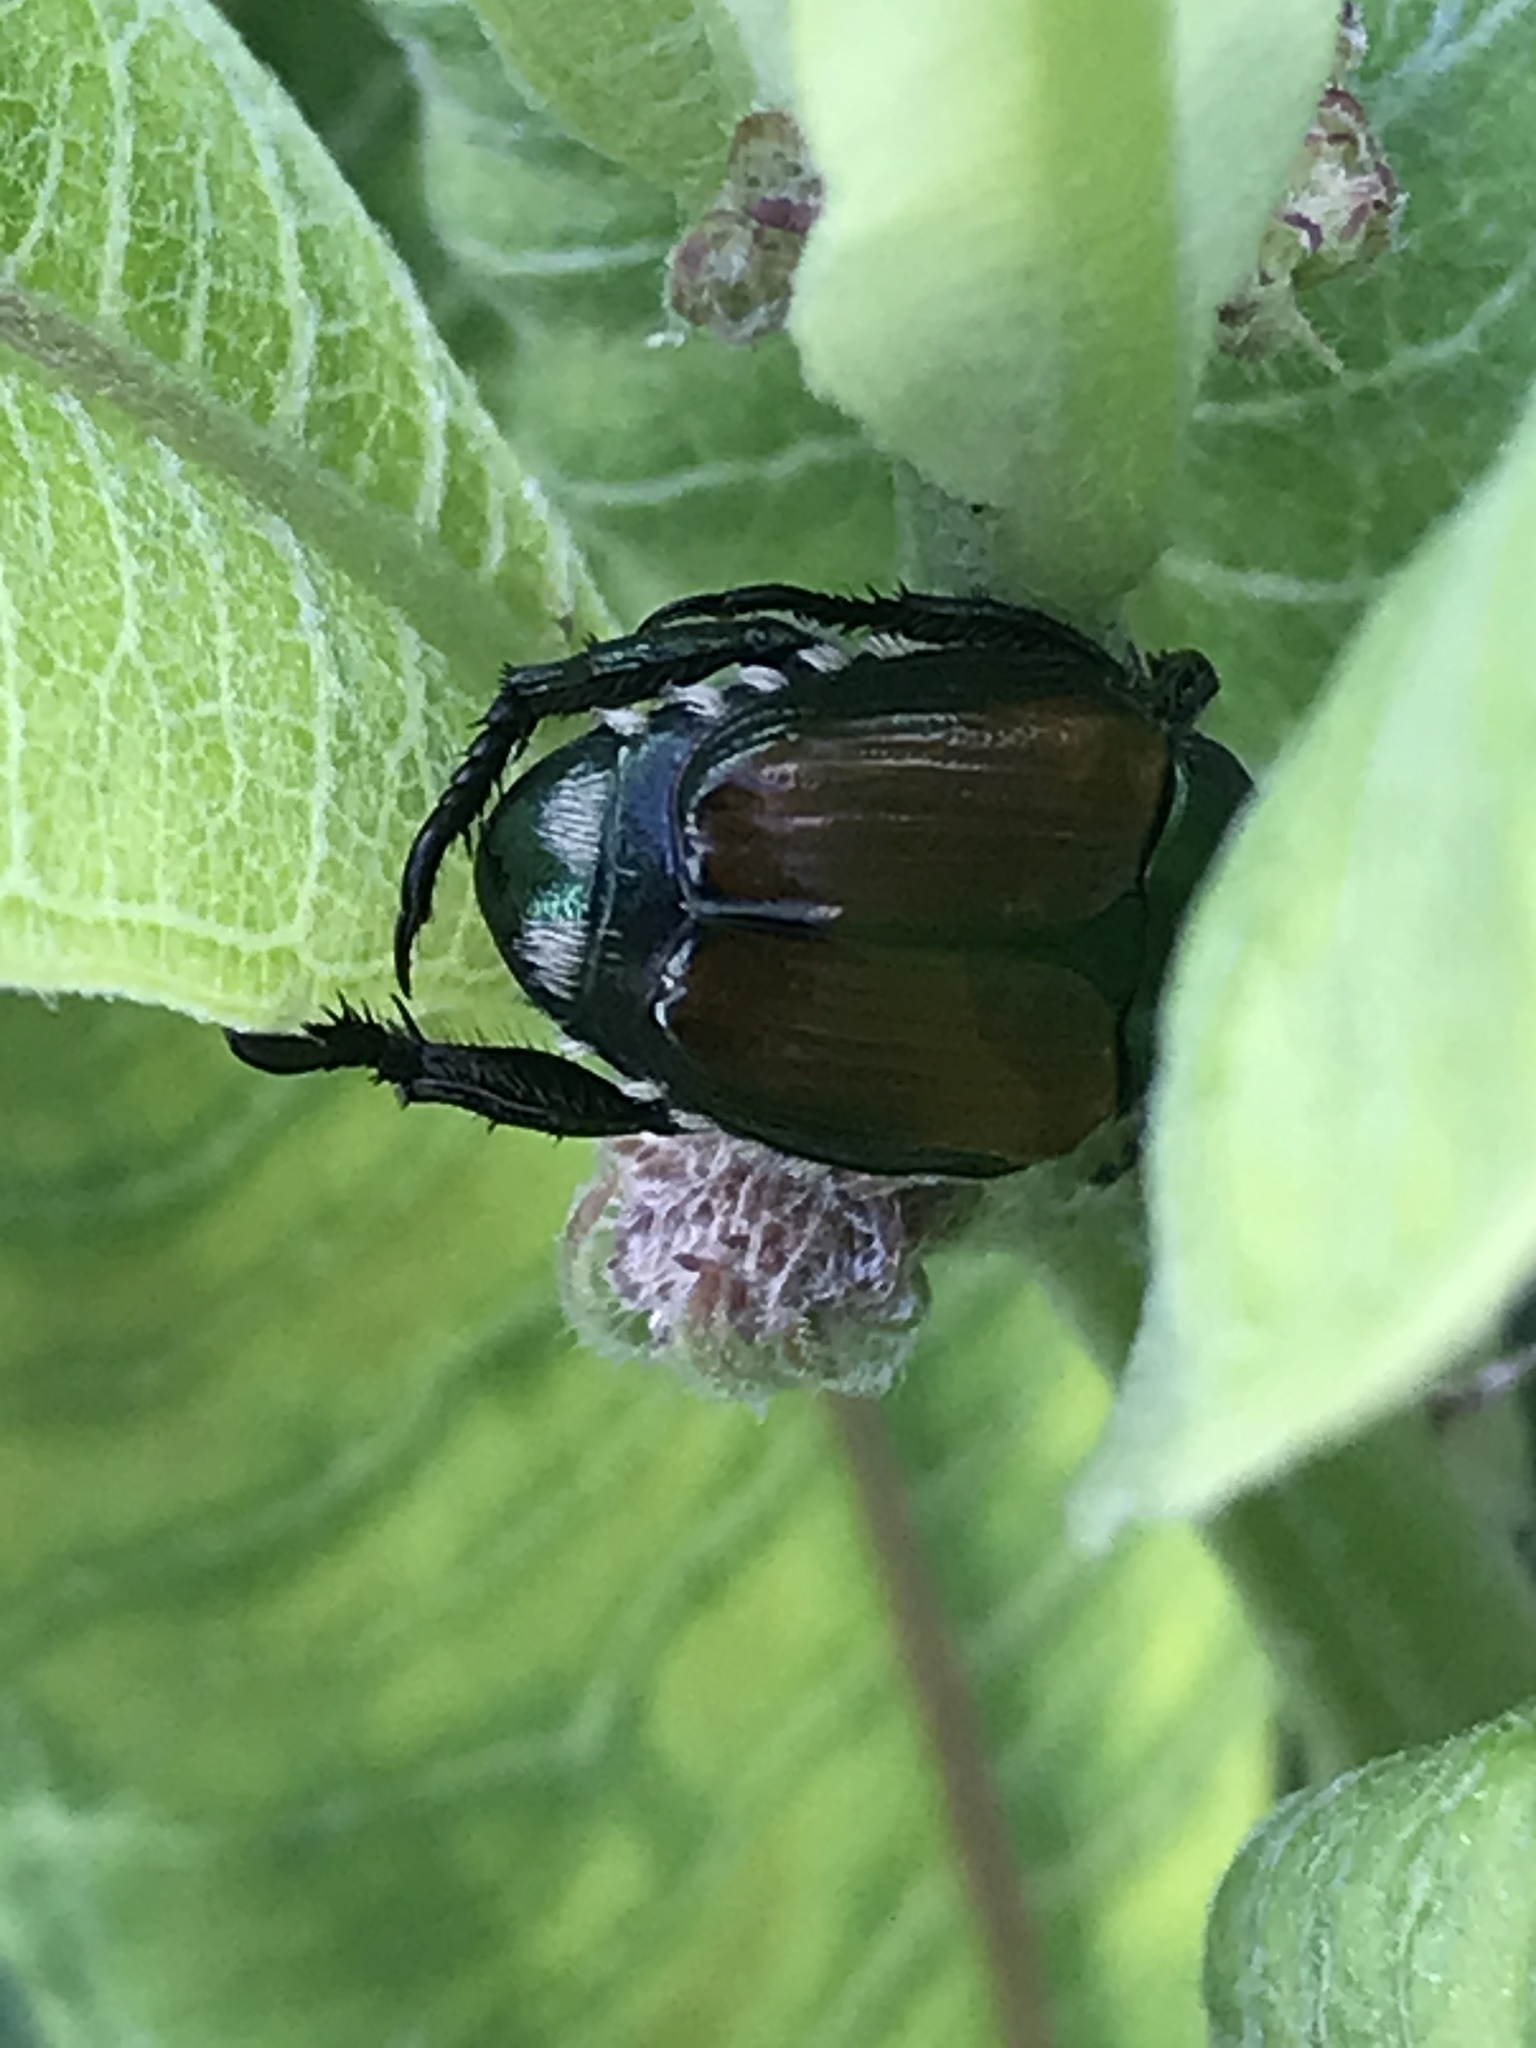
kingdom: Animalia
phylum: Arthropoda
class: Insecta
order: Coleoptera
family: Scarabaeidae
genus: Popillia
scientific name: Popillia japonica
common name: Japanese beetle
